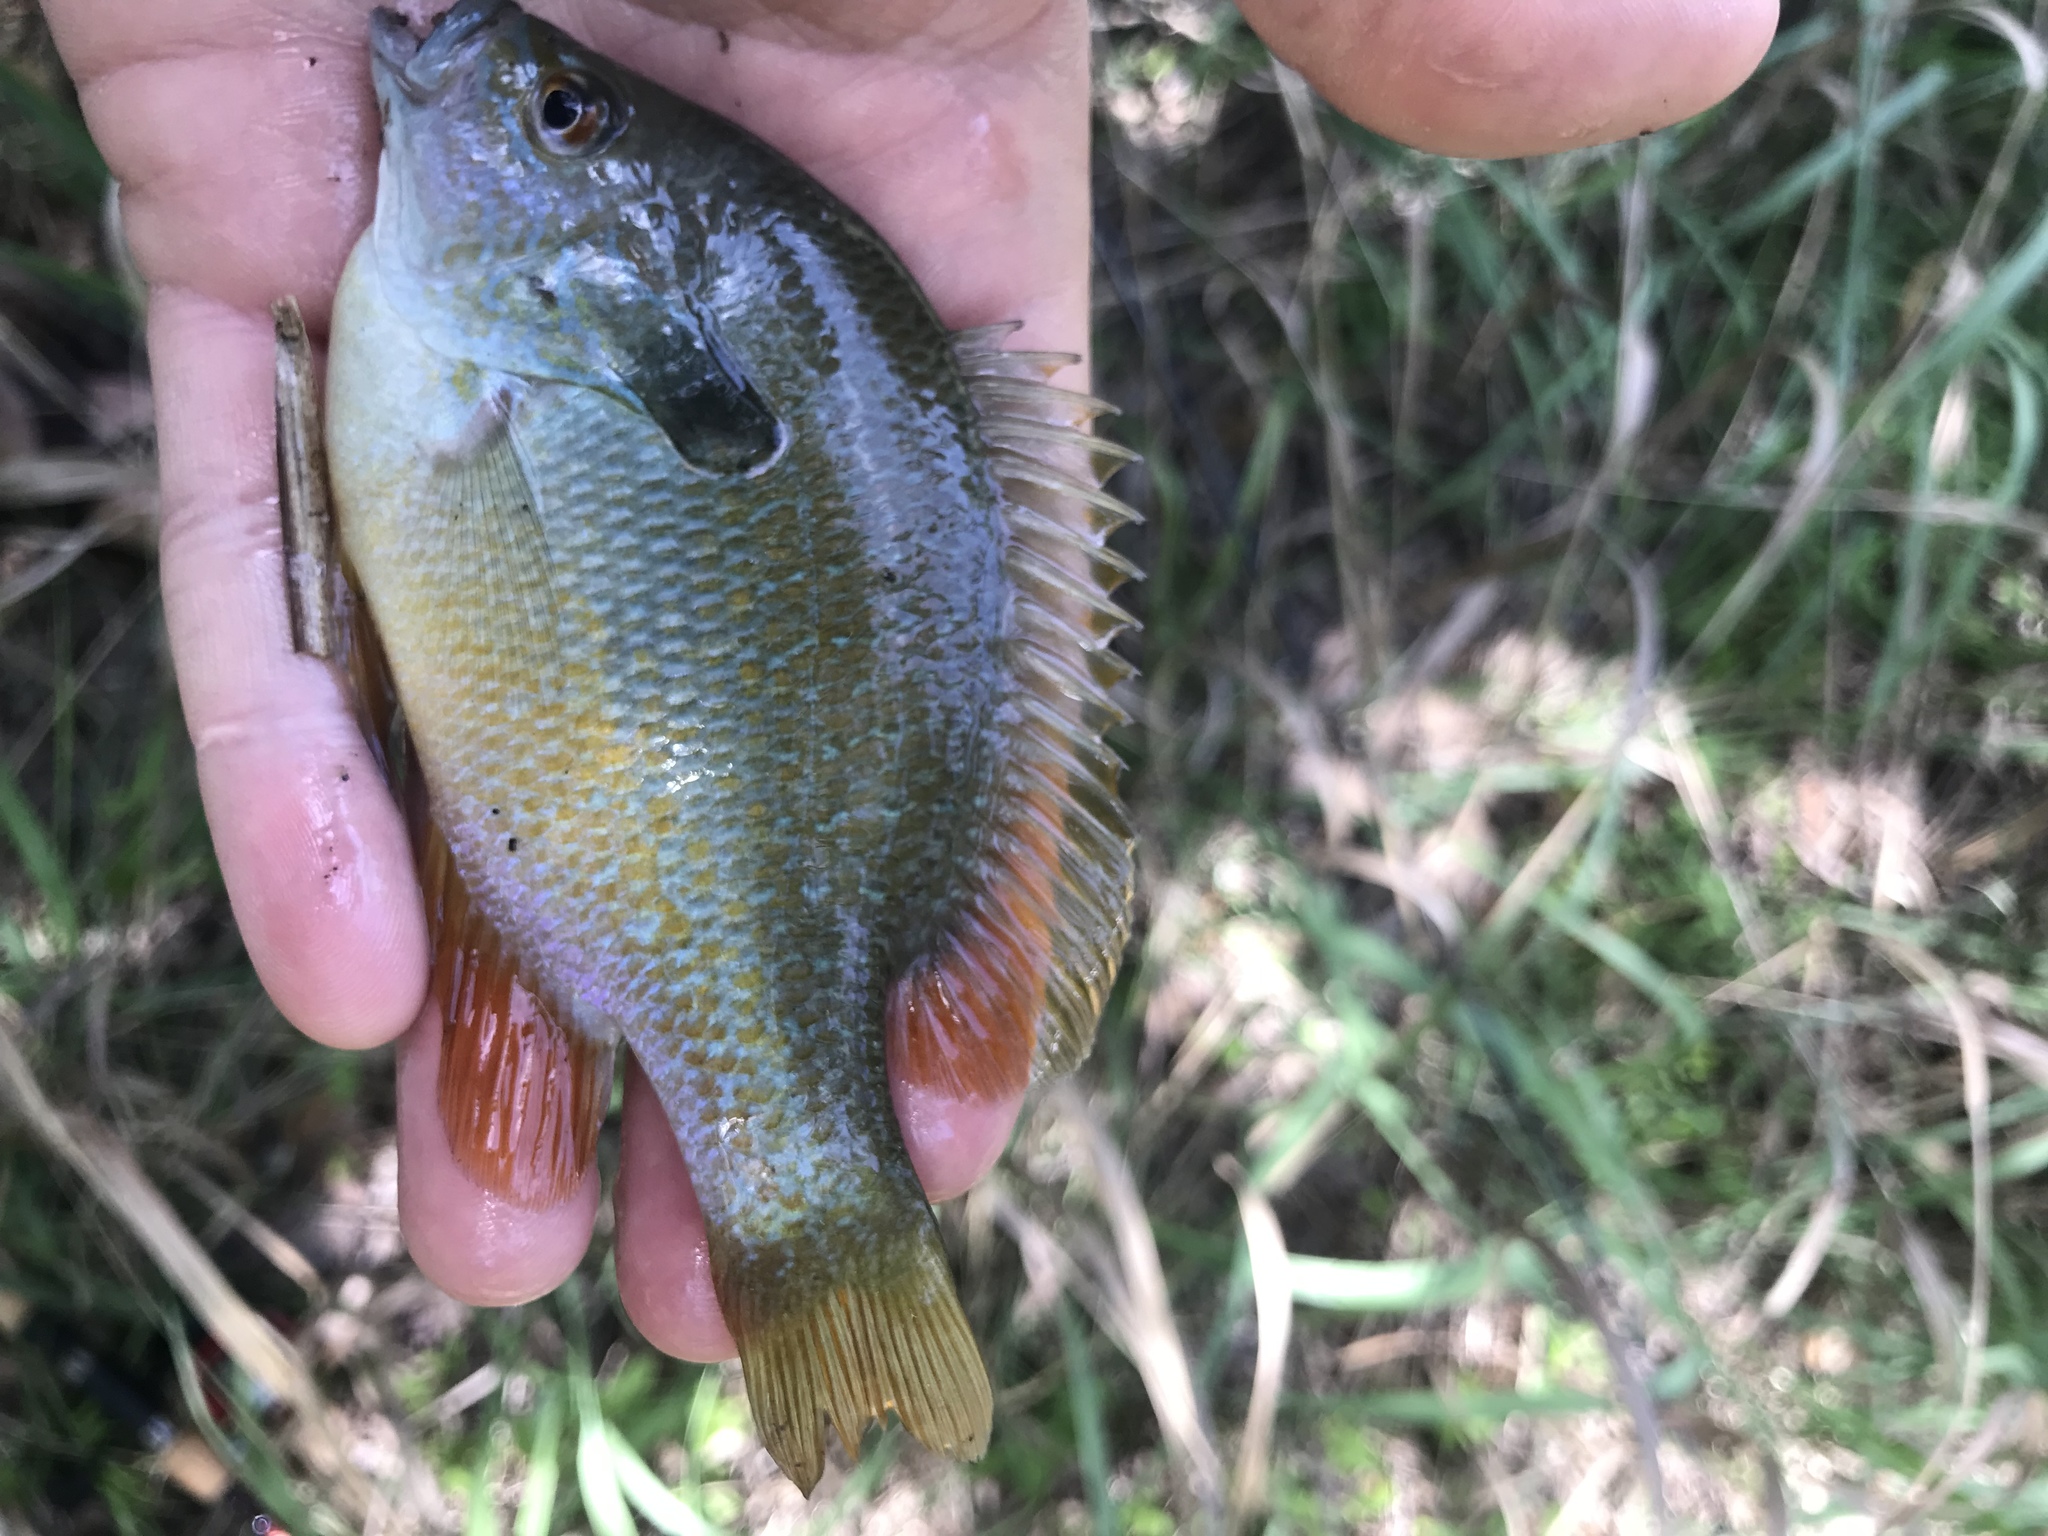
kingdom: Animalia
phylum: Chordata
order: Perciformes
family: Centrarchidae
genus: Lepomis
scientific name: Lepomis megalotis
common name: Longear sunfish
